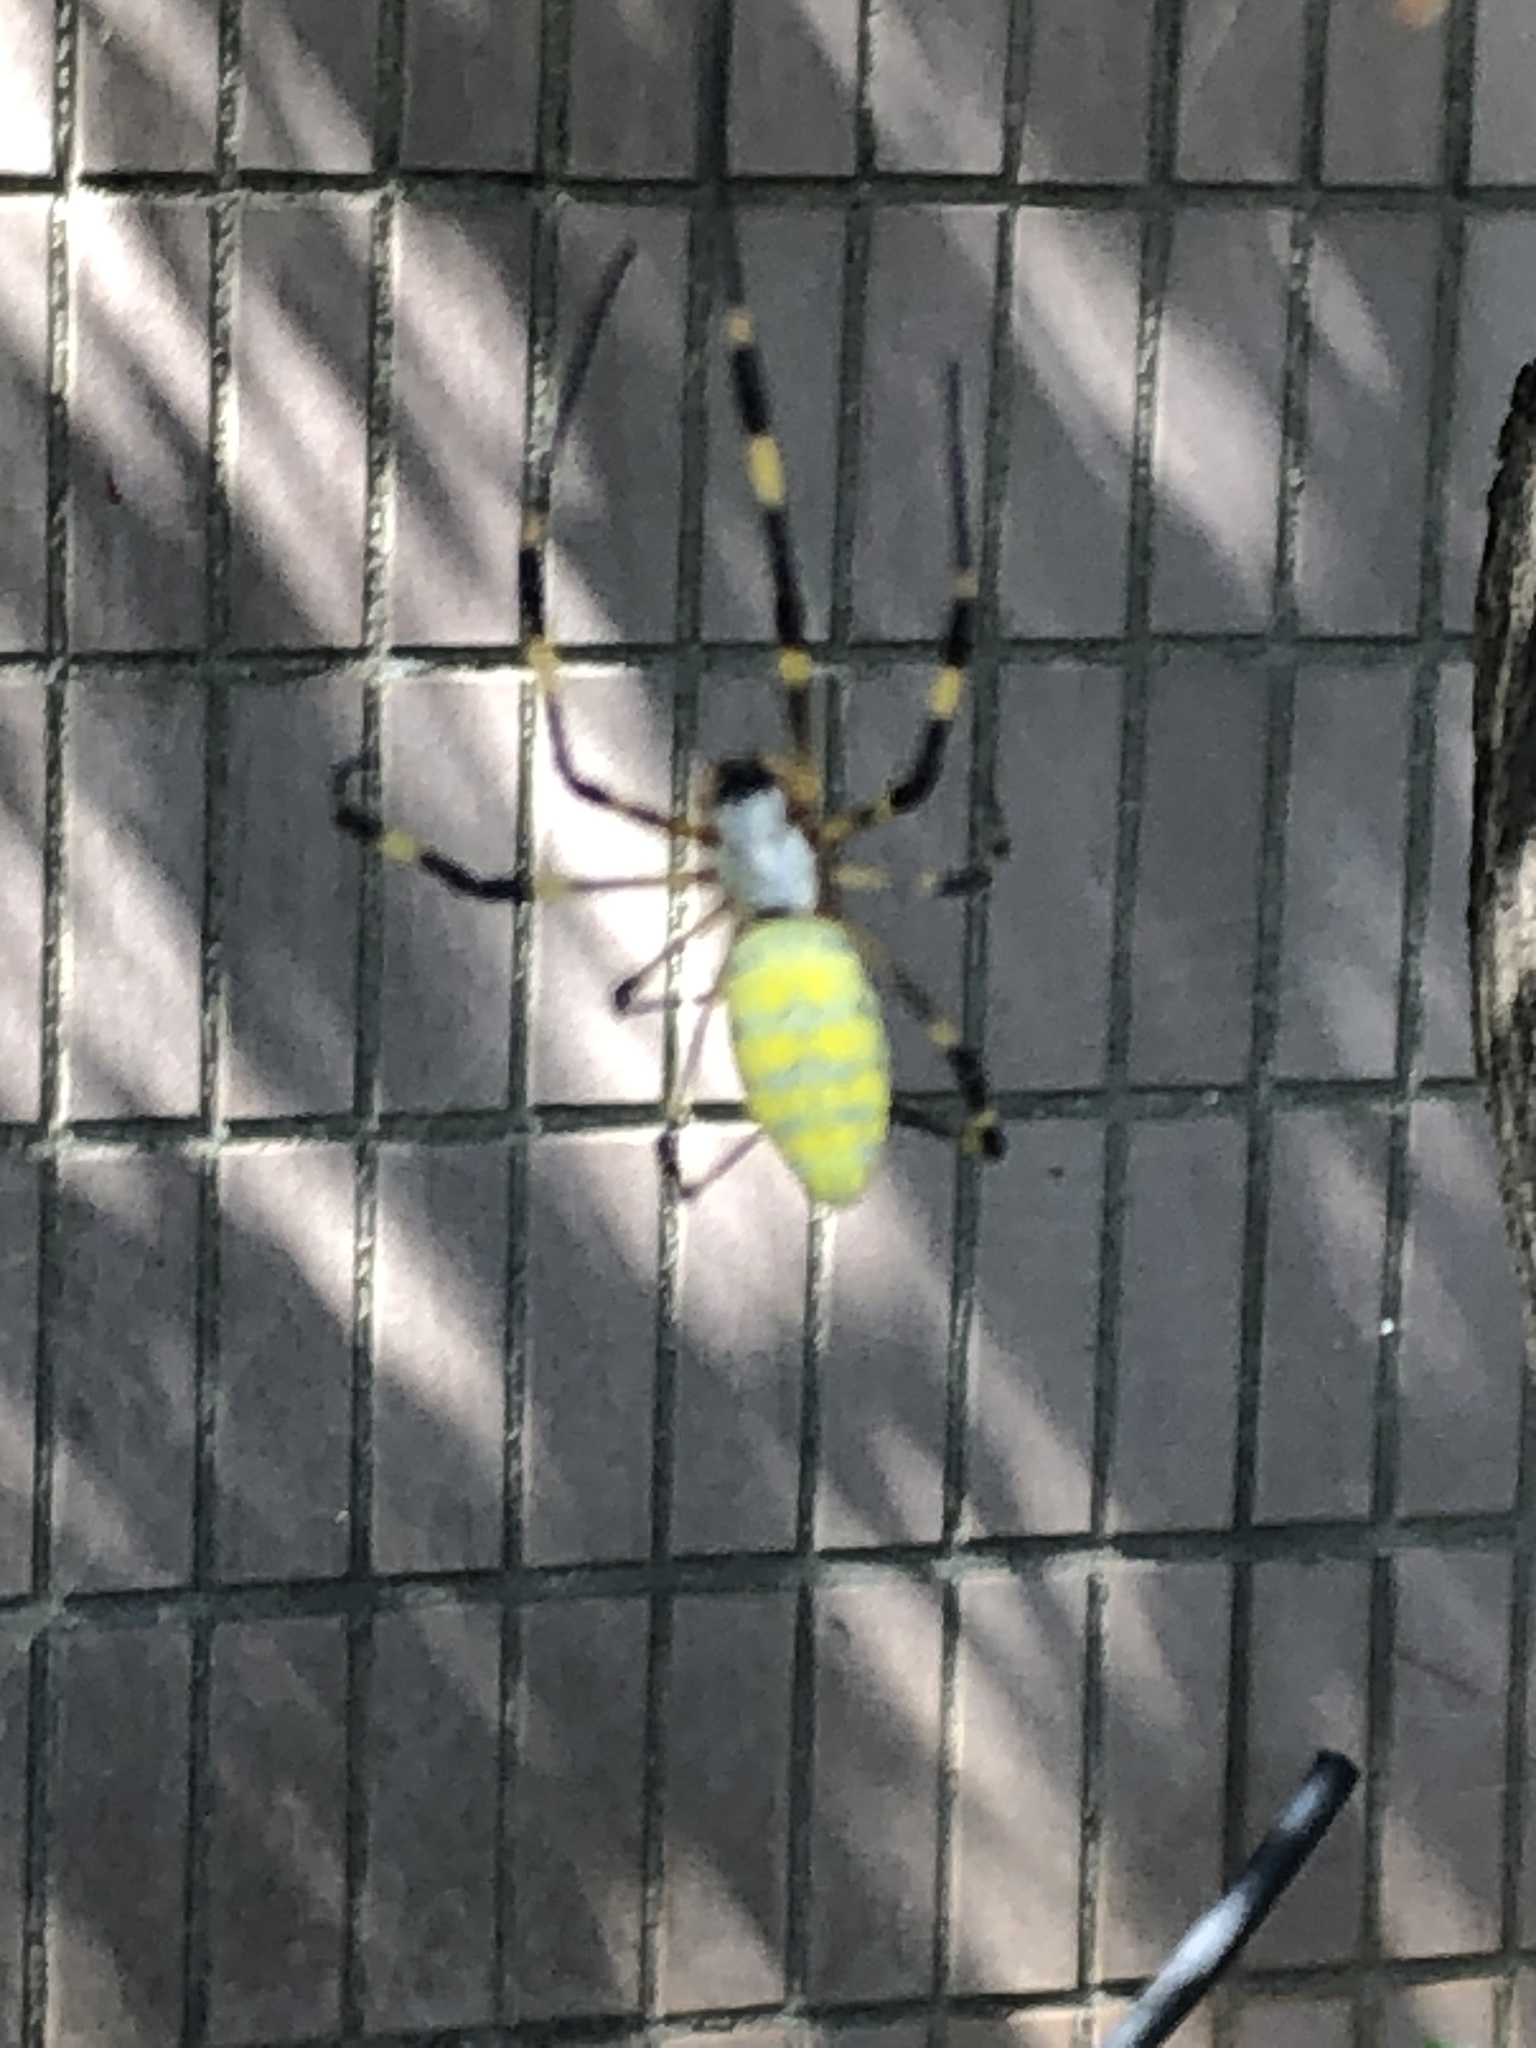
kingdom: Animalia
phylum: Arthropoda
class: Arachnida
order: Araneae
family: Araneidae
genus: Trichonephila
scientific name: Trichonephila clavata
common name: Jorō spider
